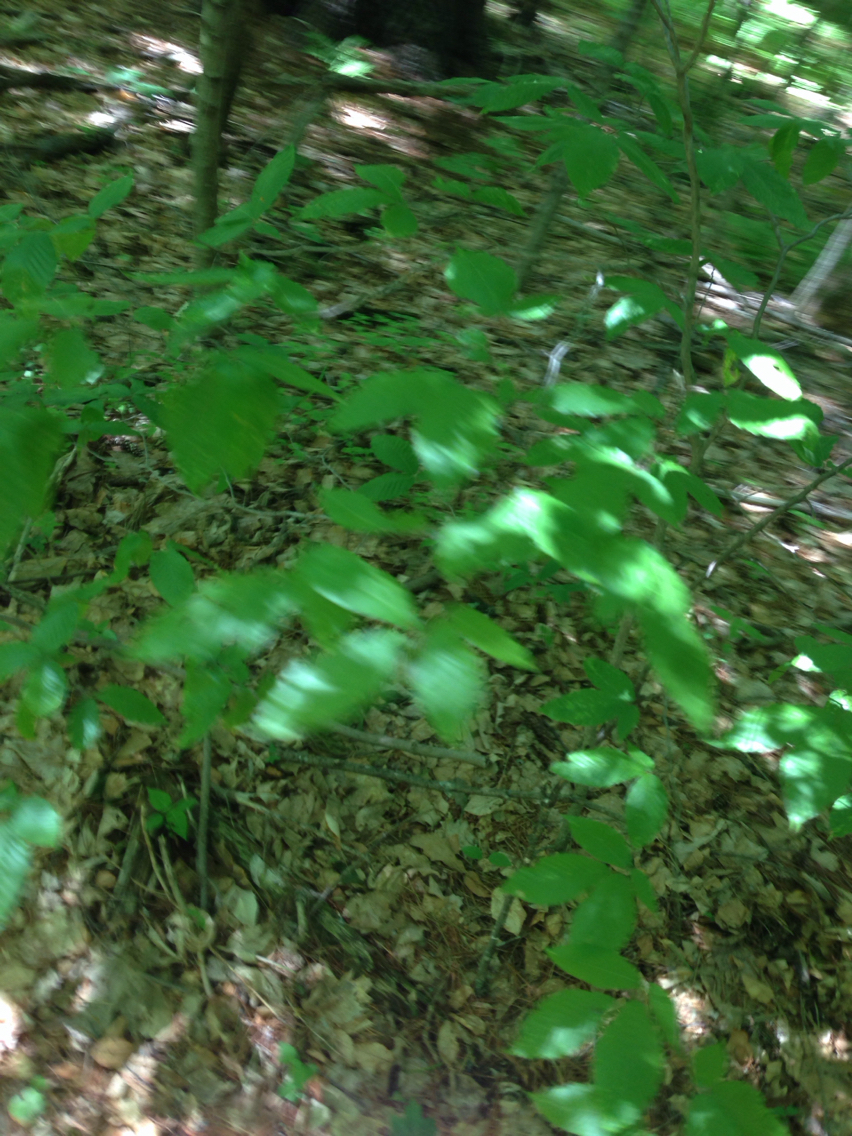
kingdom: Plantae
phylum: Tracheophyta
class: Magnoliopsida
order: Fagales
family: Fagaceae
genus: Fagus
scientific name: Fagus grandifolia
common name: American beech
